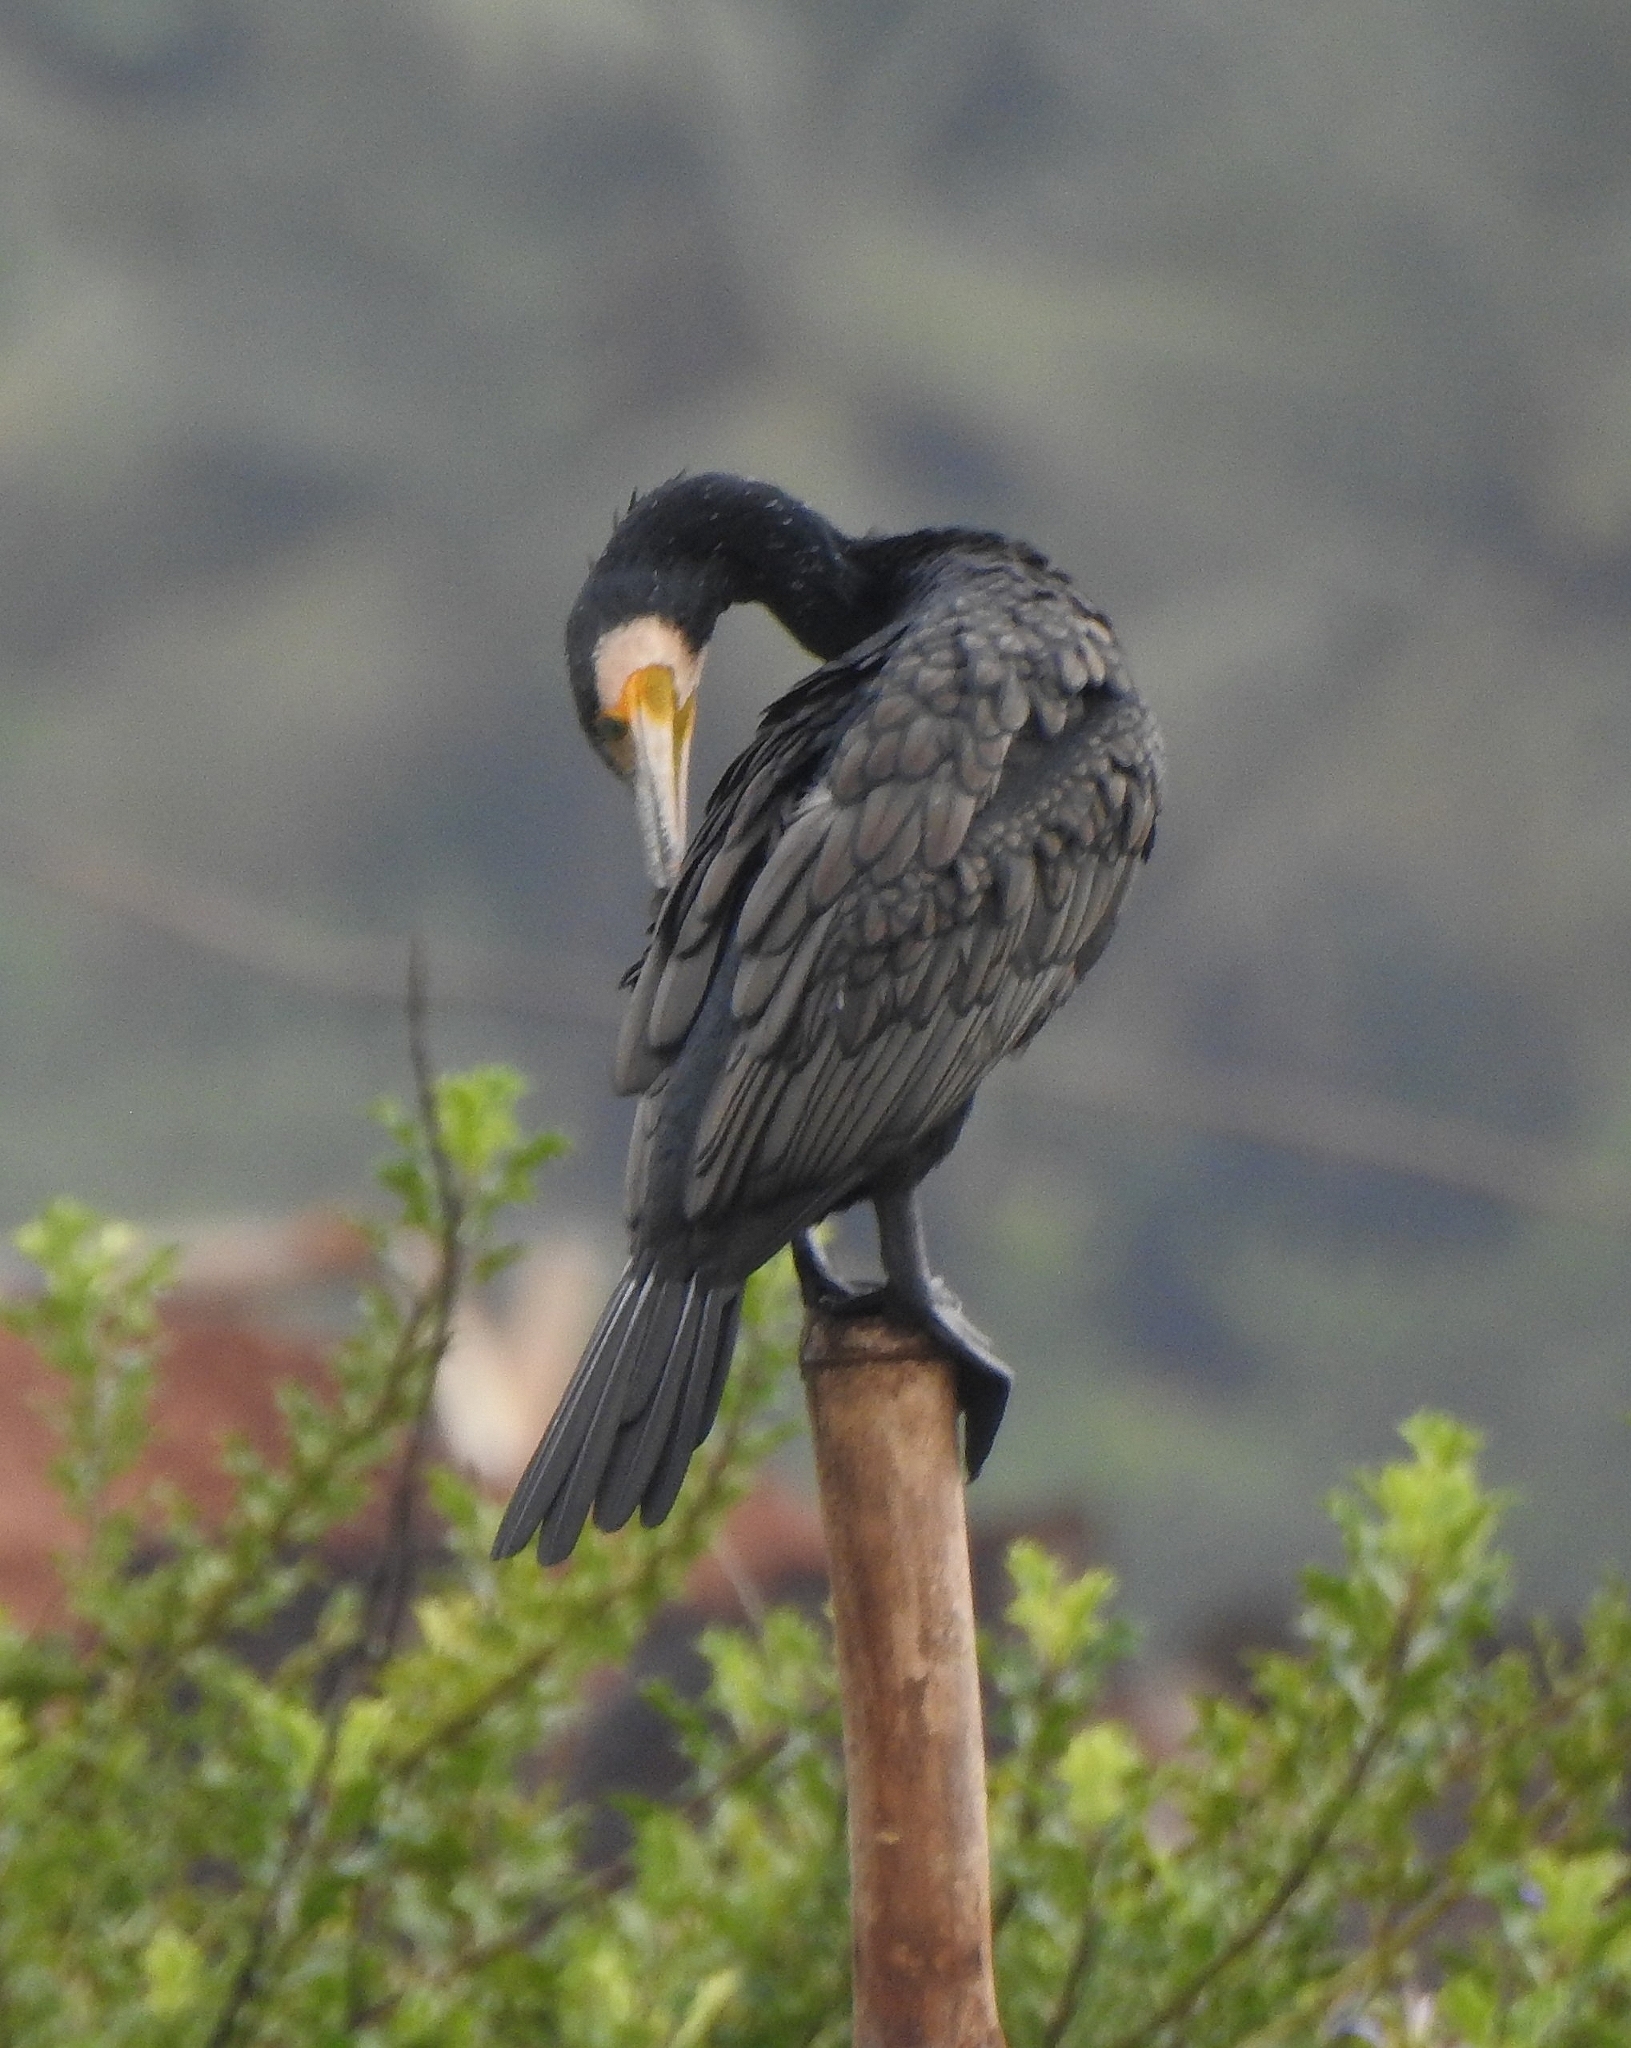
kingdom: Animalia
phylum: Chordata
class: Aves
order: Suliformes
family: Phalacrocoracidae
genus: Phalacrocorax
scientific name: Phalacrocorax carbo
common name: Great cormorant
